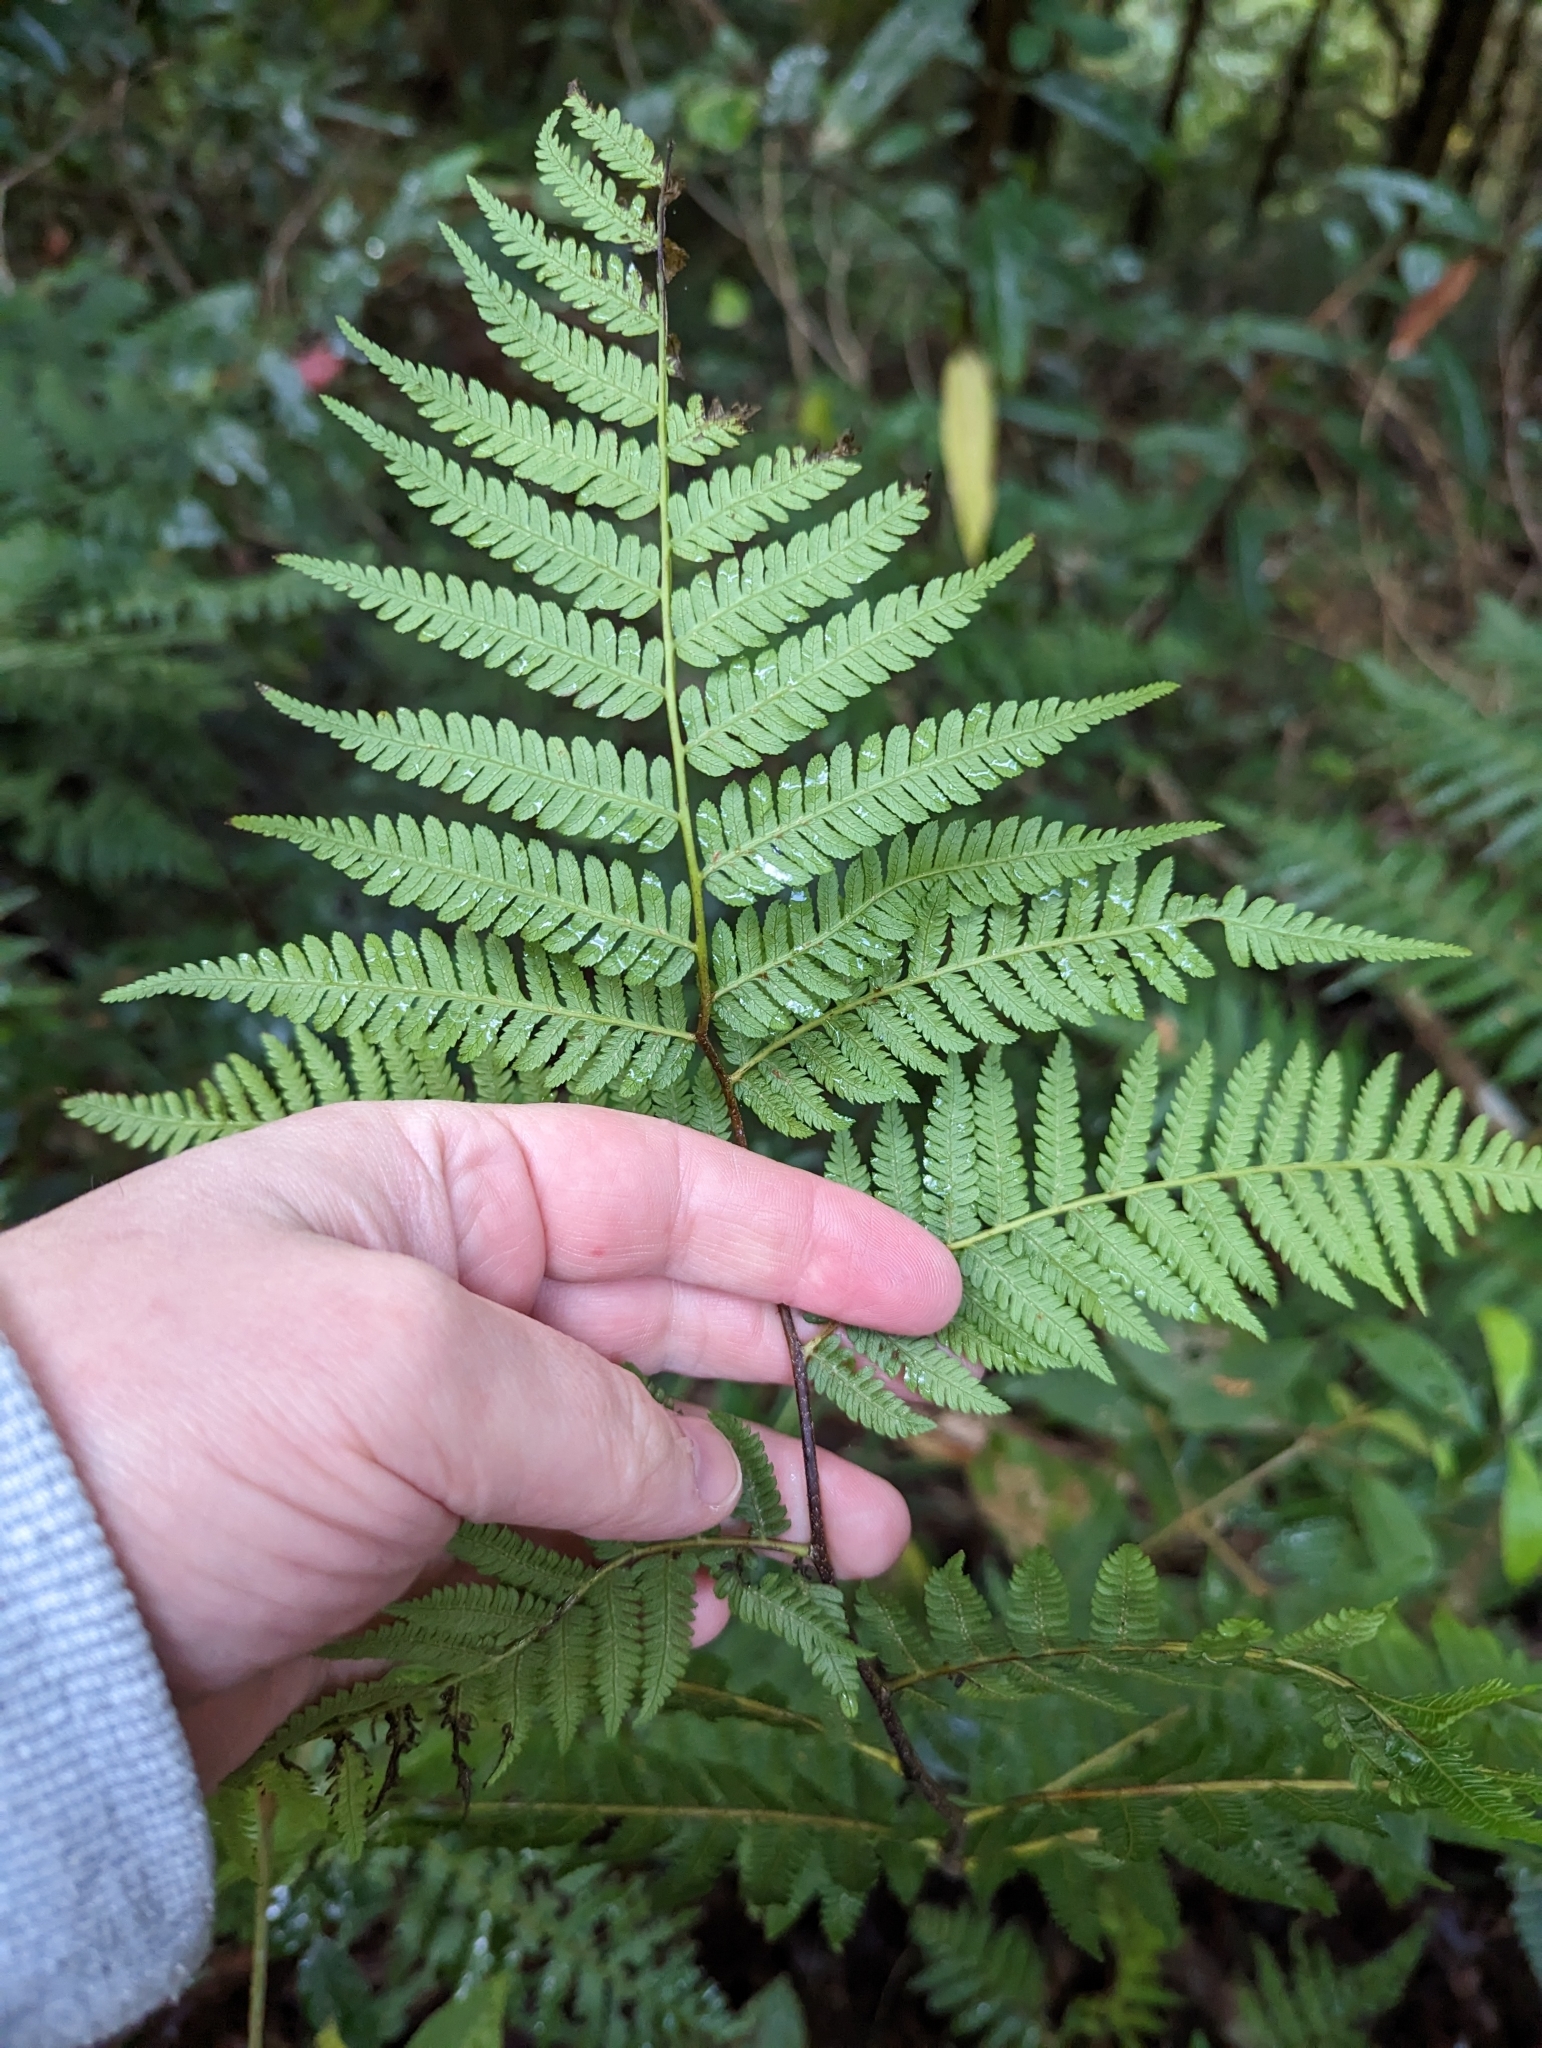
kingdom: Plantae
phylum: Tracheophyta
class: Polypodiopsida
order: Cyatheales
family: Cyatheaceae
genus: Alsophila
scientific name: Alsophila spinulosa
